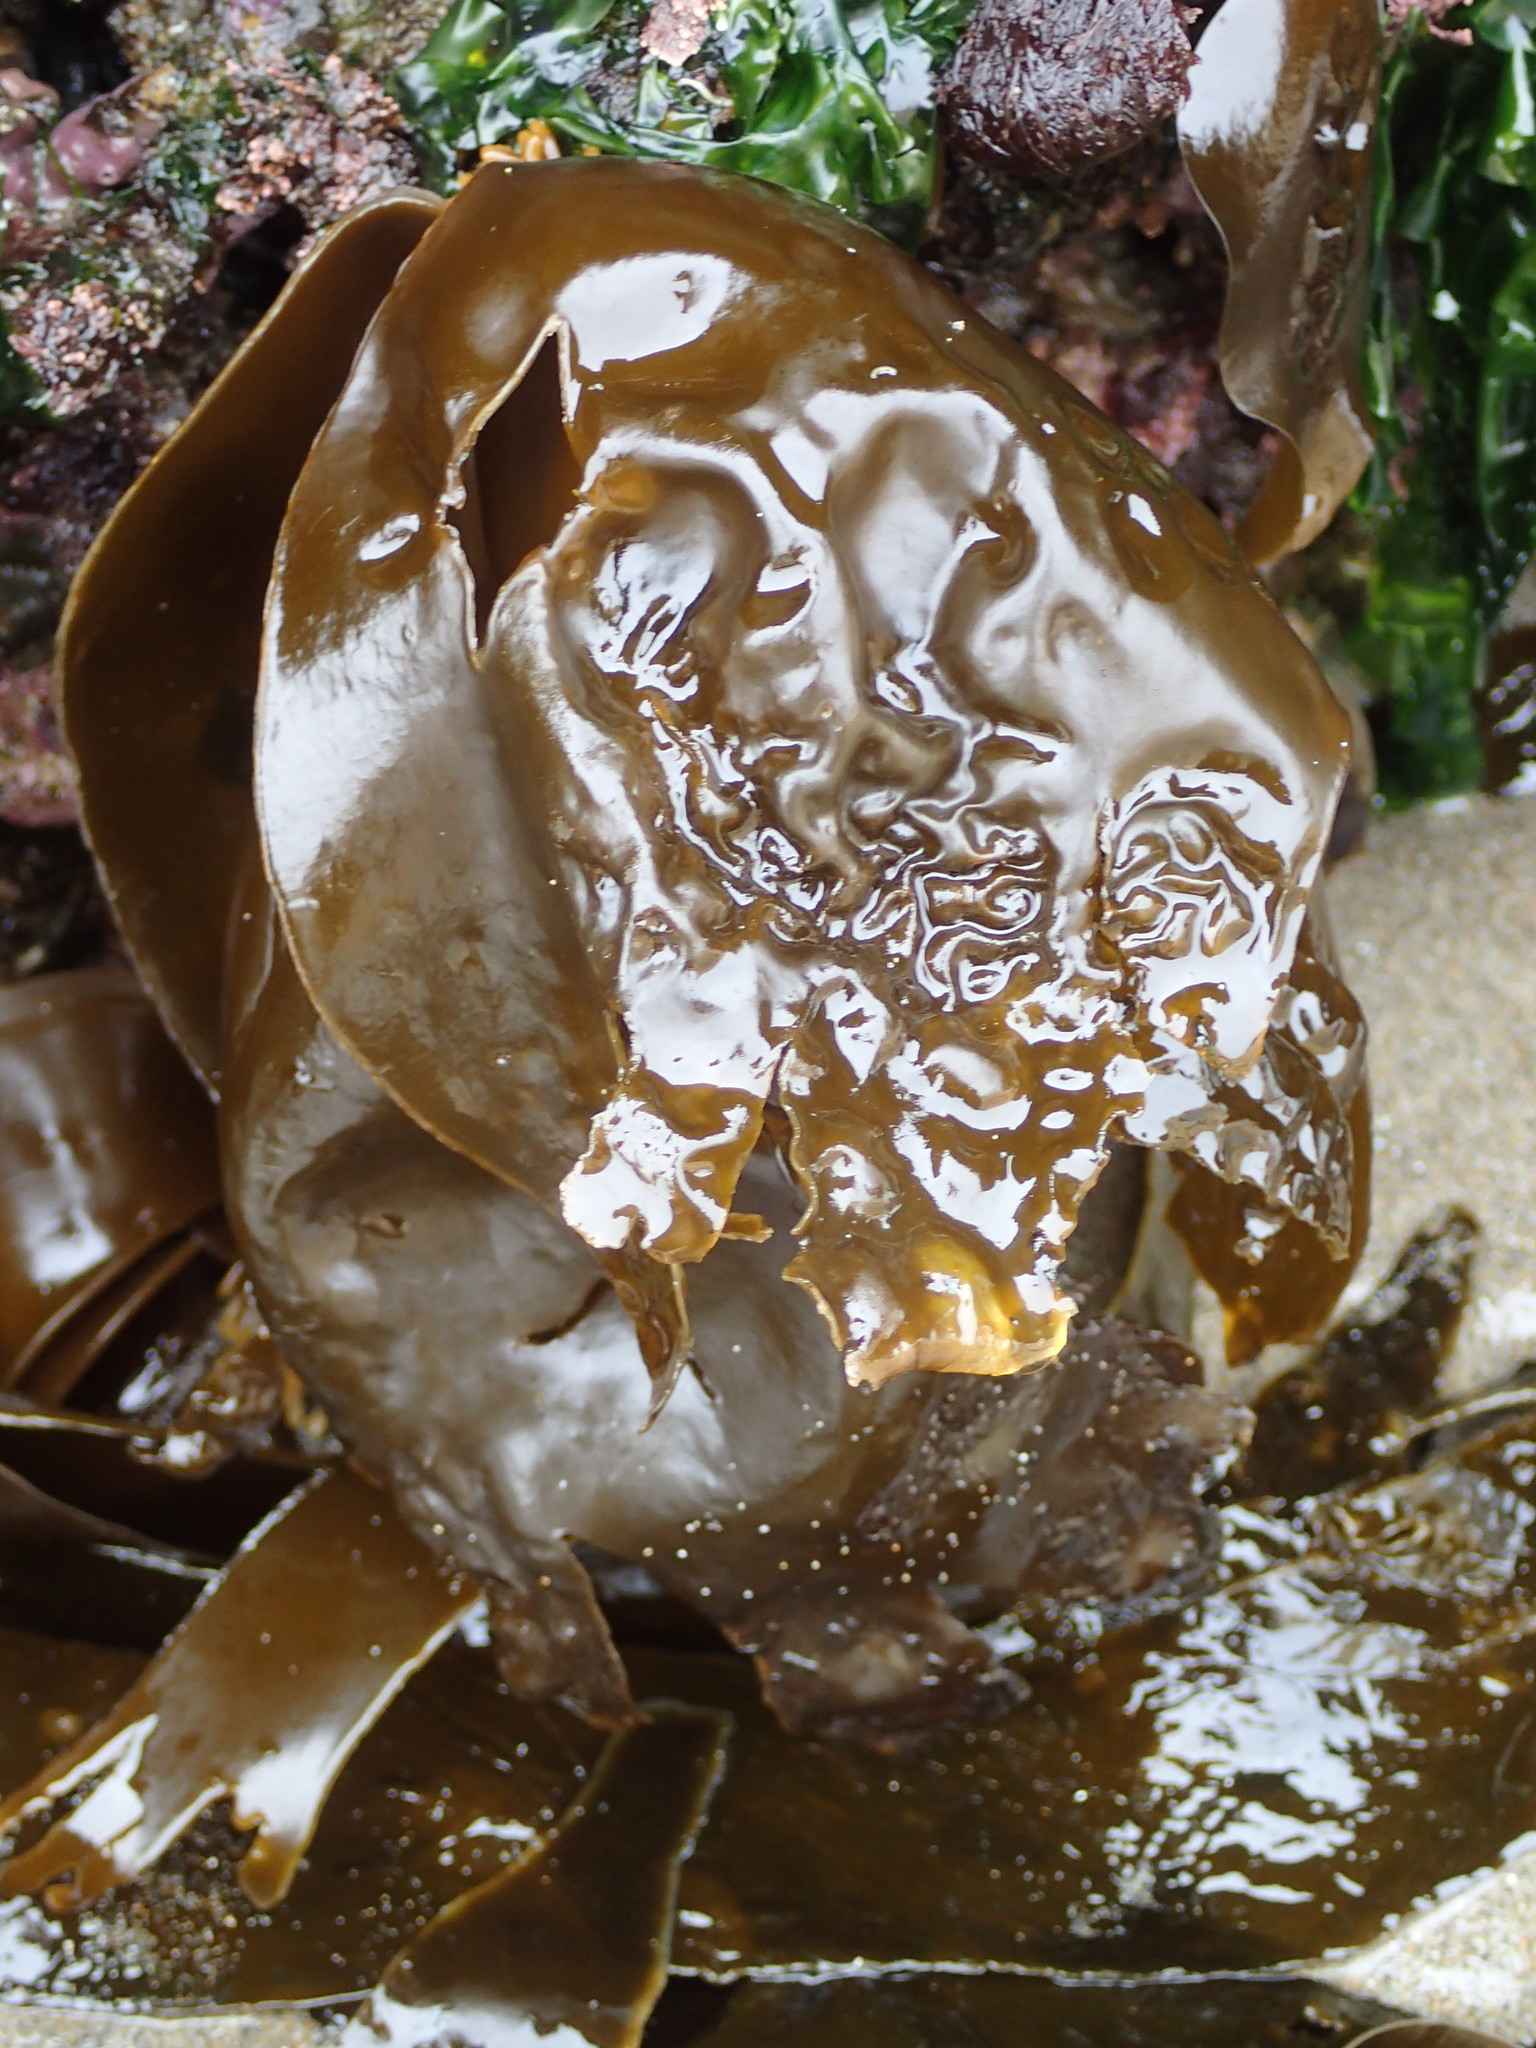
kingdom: Chromista
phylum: Ochrophyta
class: Phaeophyceae
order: Laminariales
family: Laminariaceae
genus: Hedophyllum
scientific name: Hedophyllum sessile
